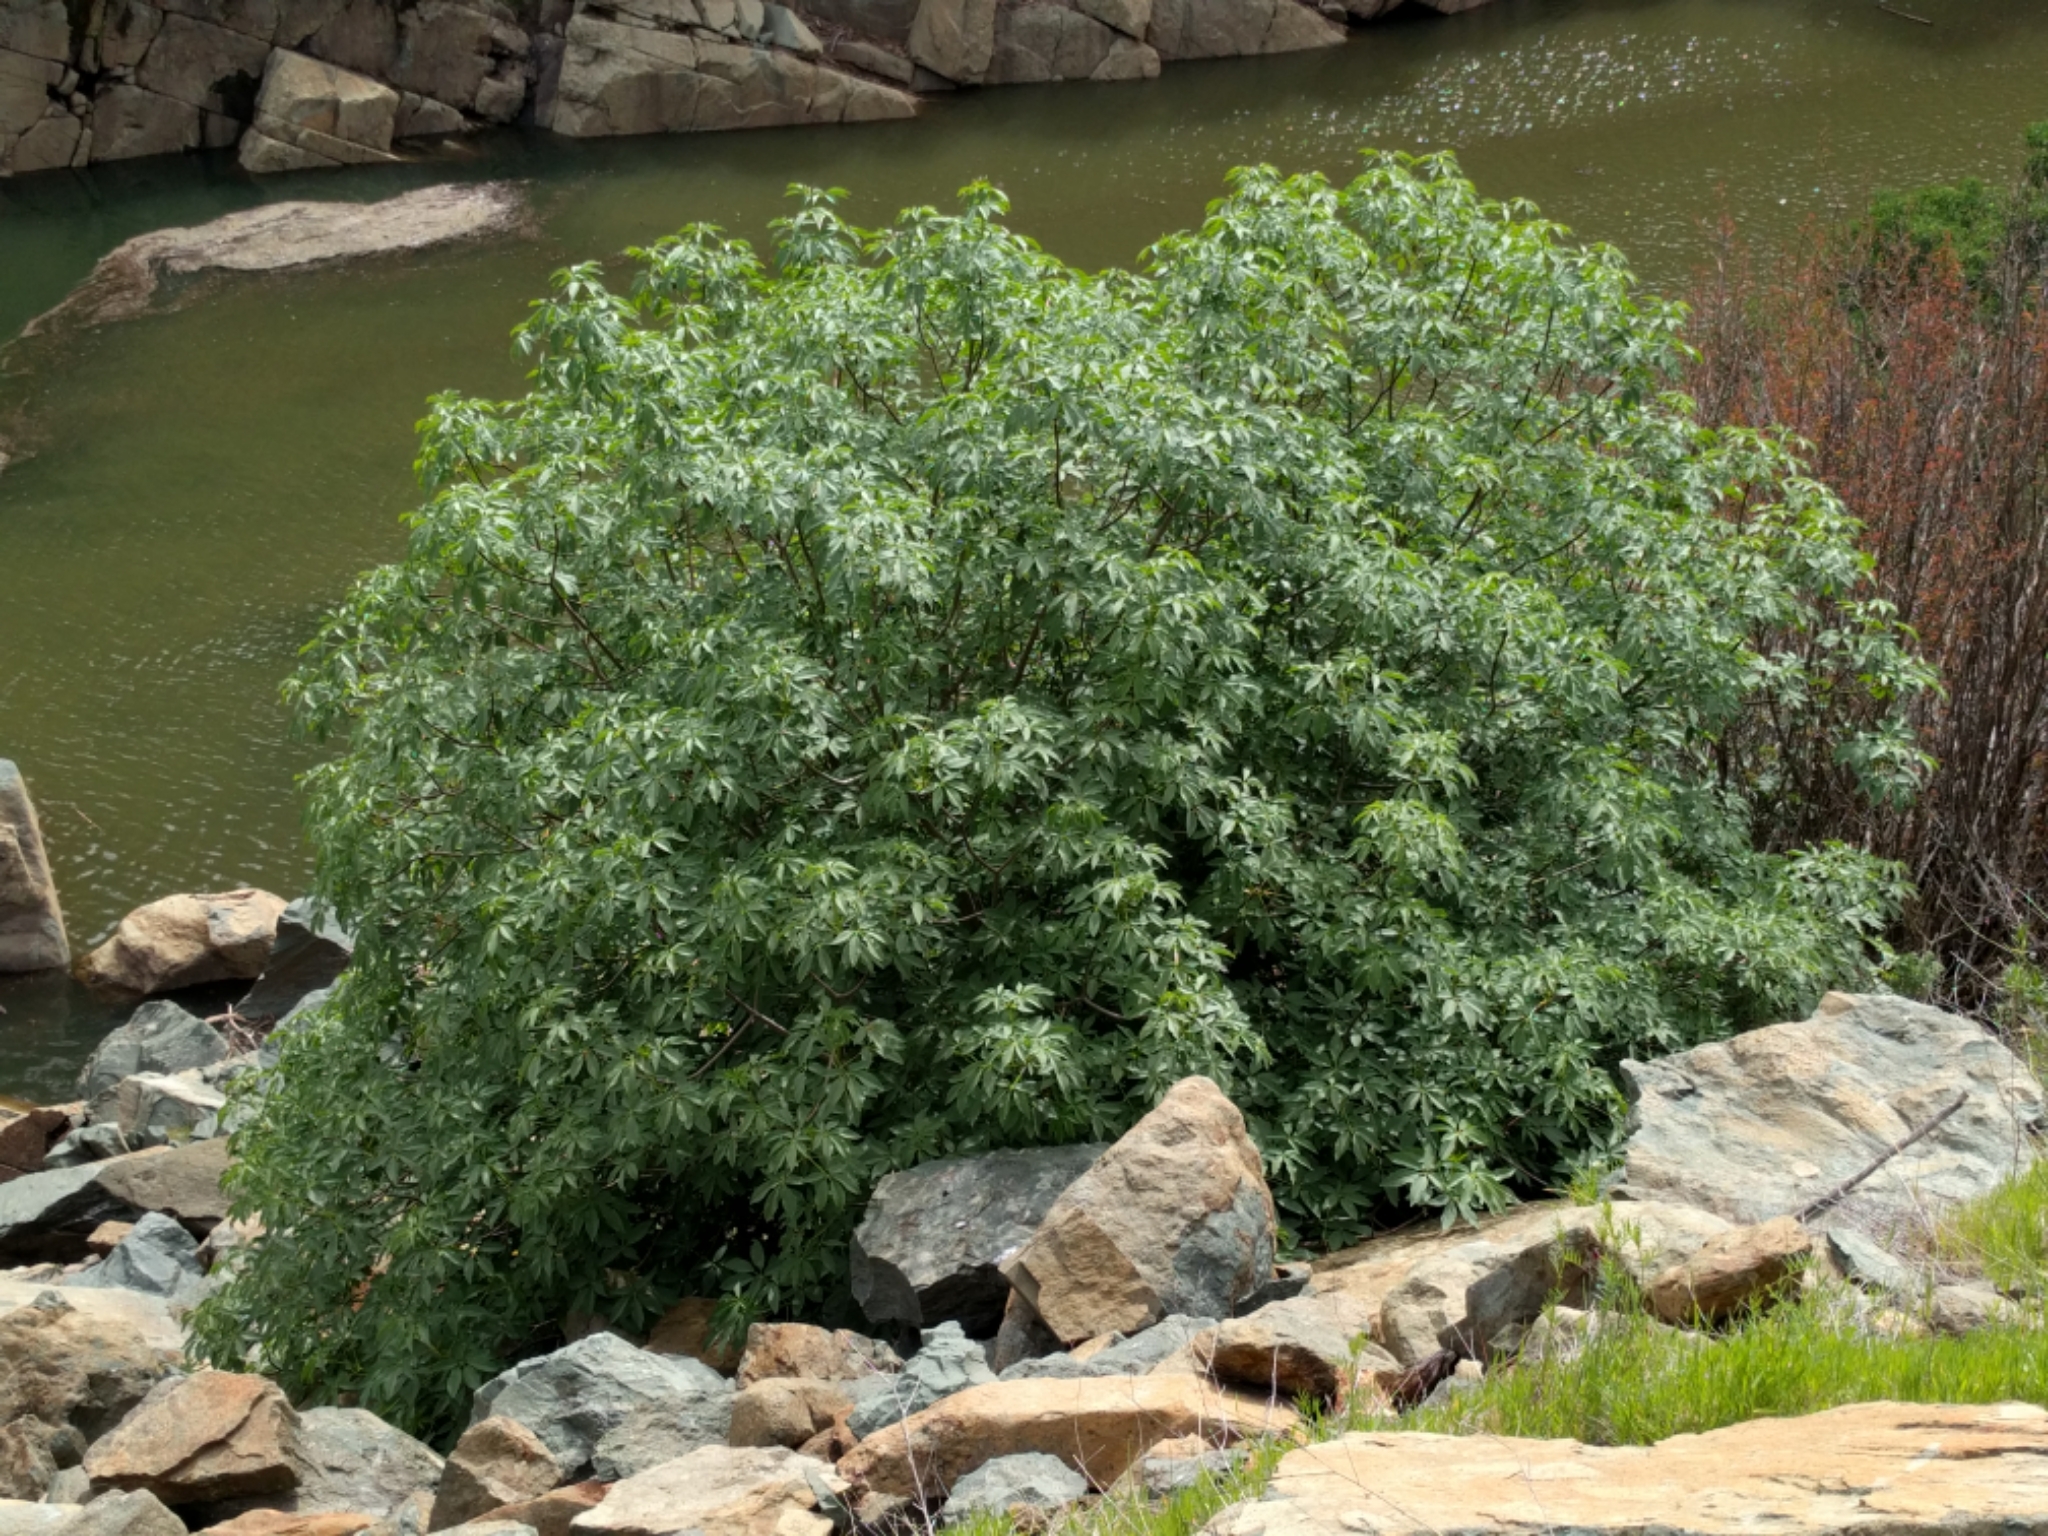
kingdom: Plantae
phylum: Tracheophyta
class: Magnoliopsida
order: Sapindales
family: Sapindaceae
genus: Aesculus
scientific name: Aesculus californica
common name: California buckeye
